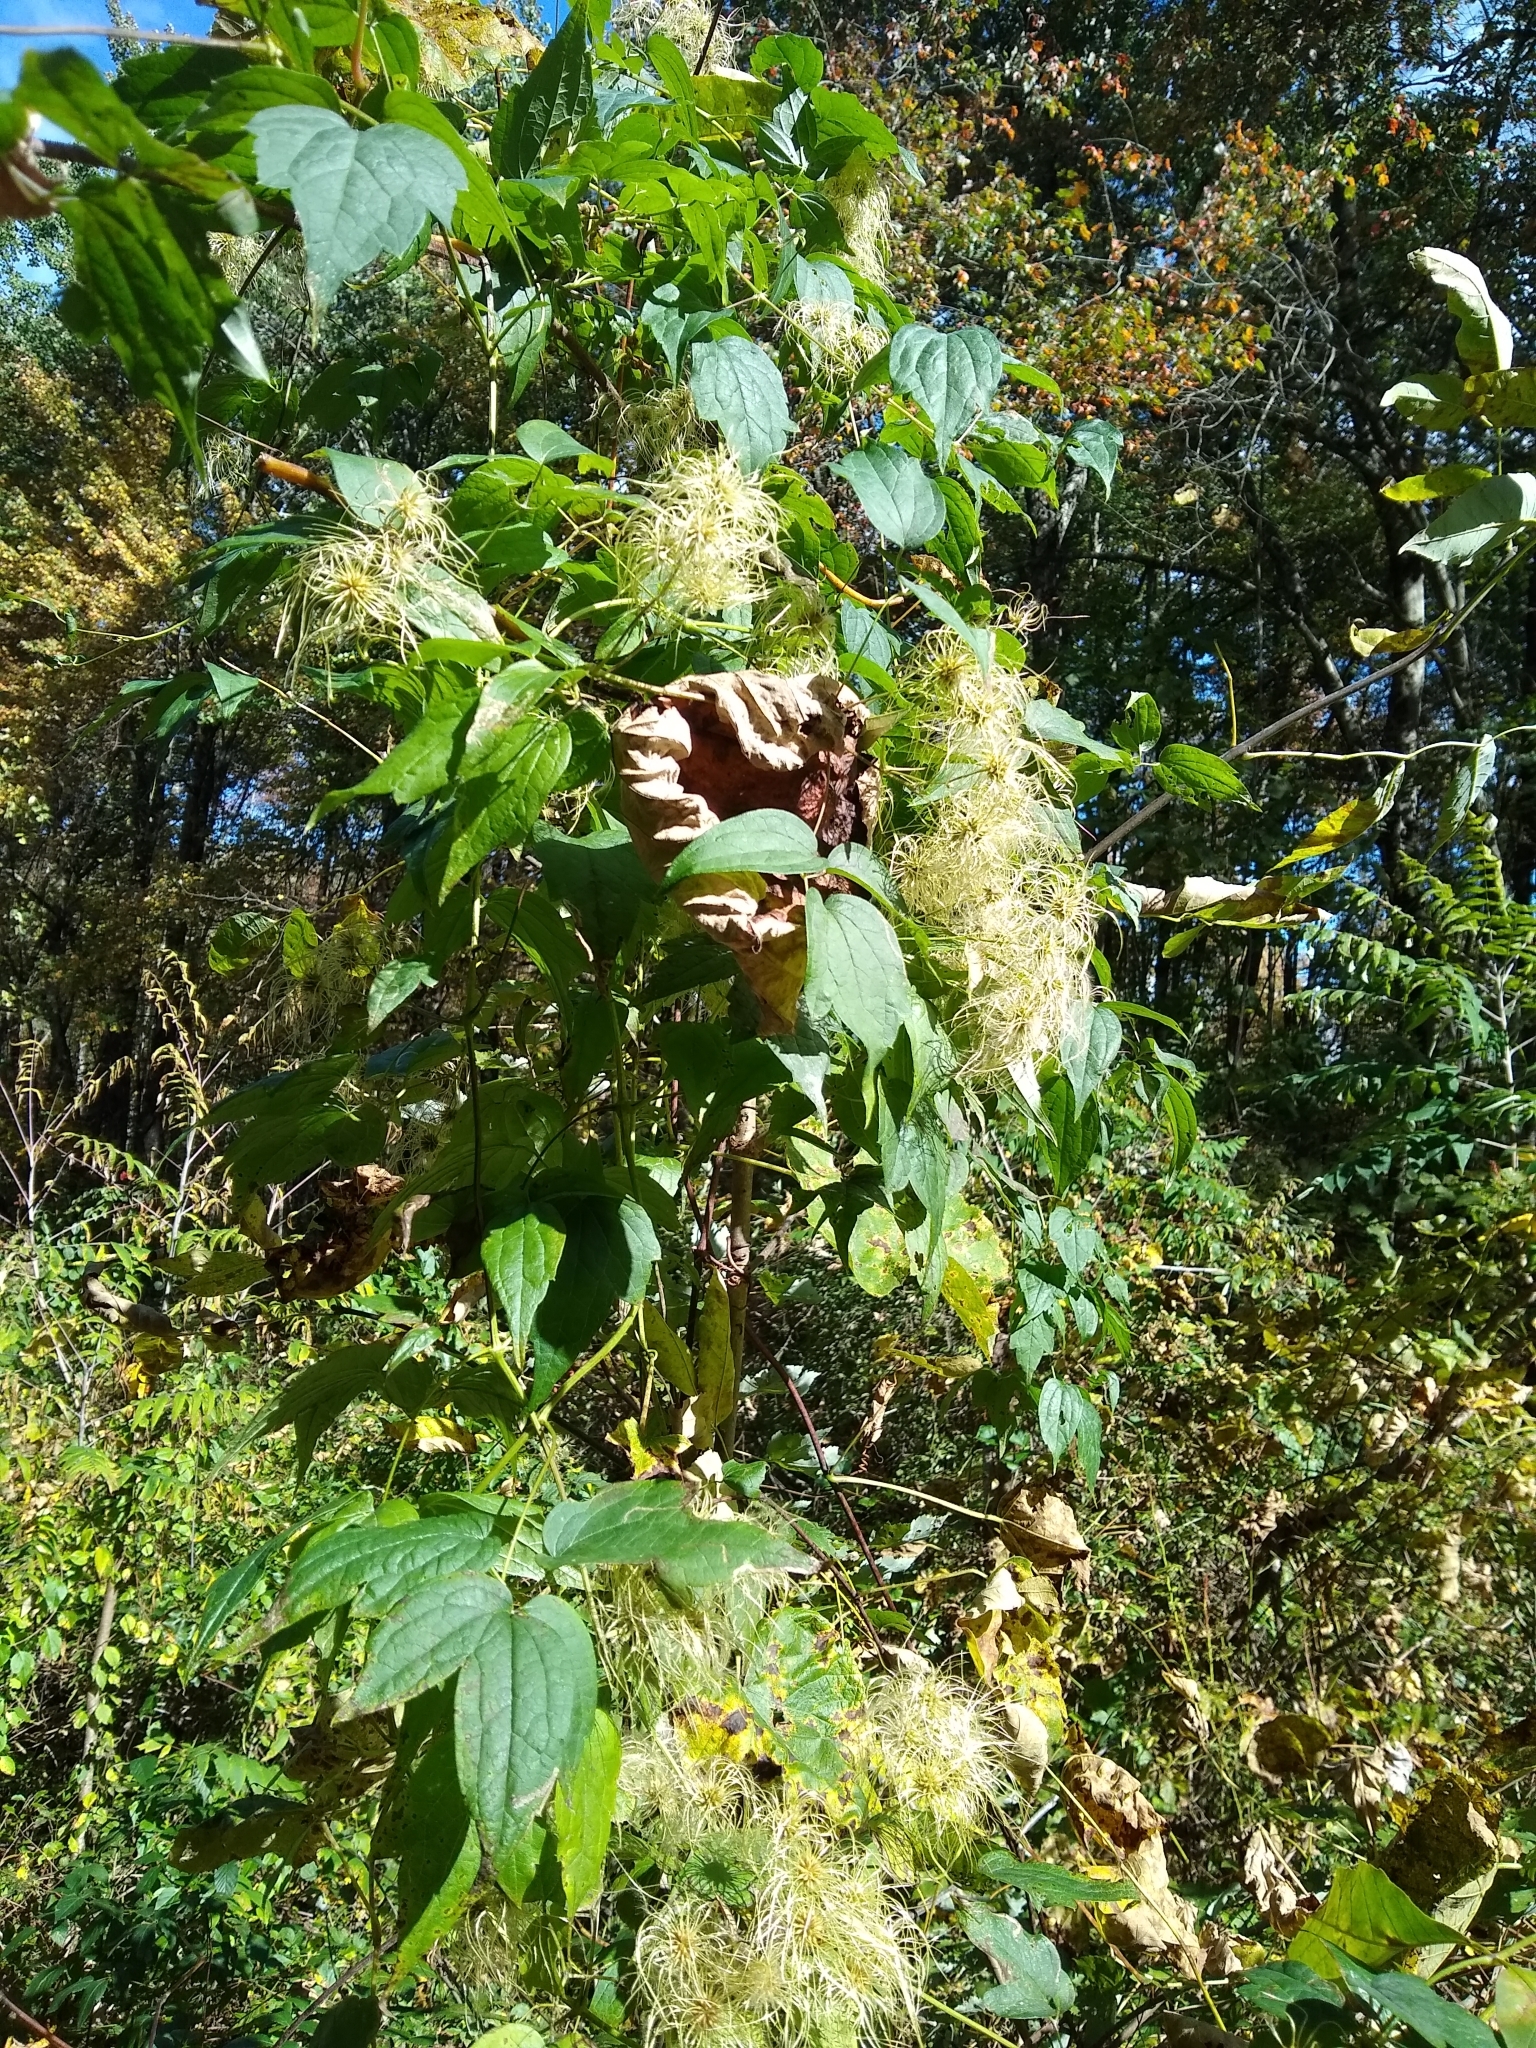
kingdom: Plantae
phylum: Tracheophyta
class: Magnoliopsida
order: Ranunculales
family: Ranunculaceae
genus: Clematis
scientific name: Clematis virginiana
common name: Virgin's-bower
